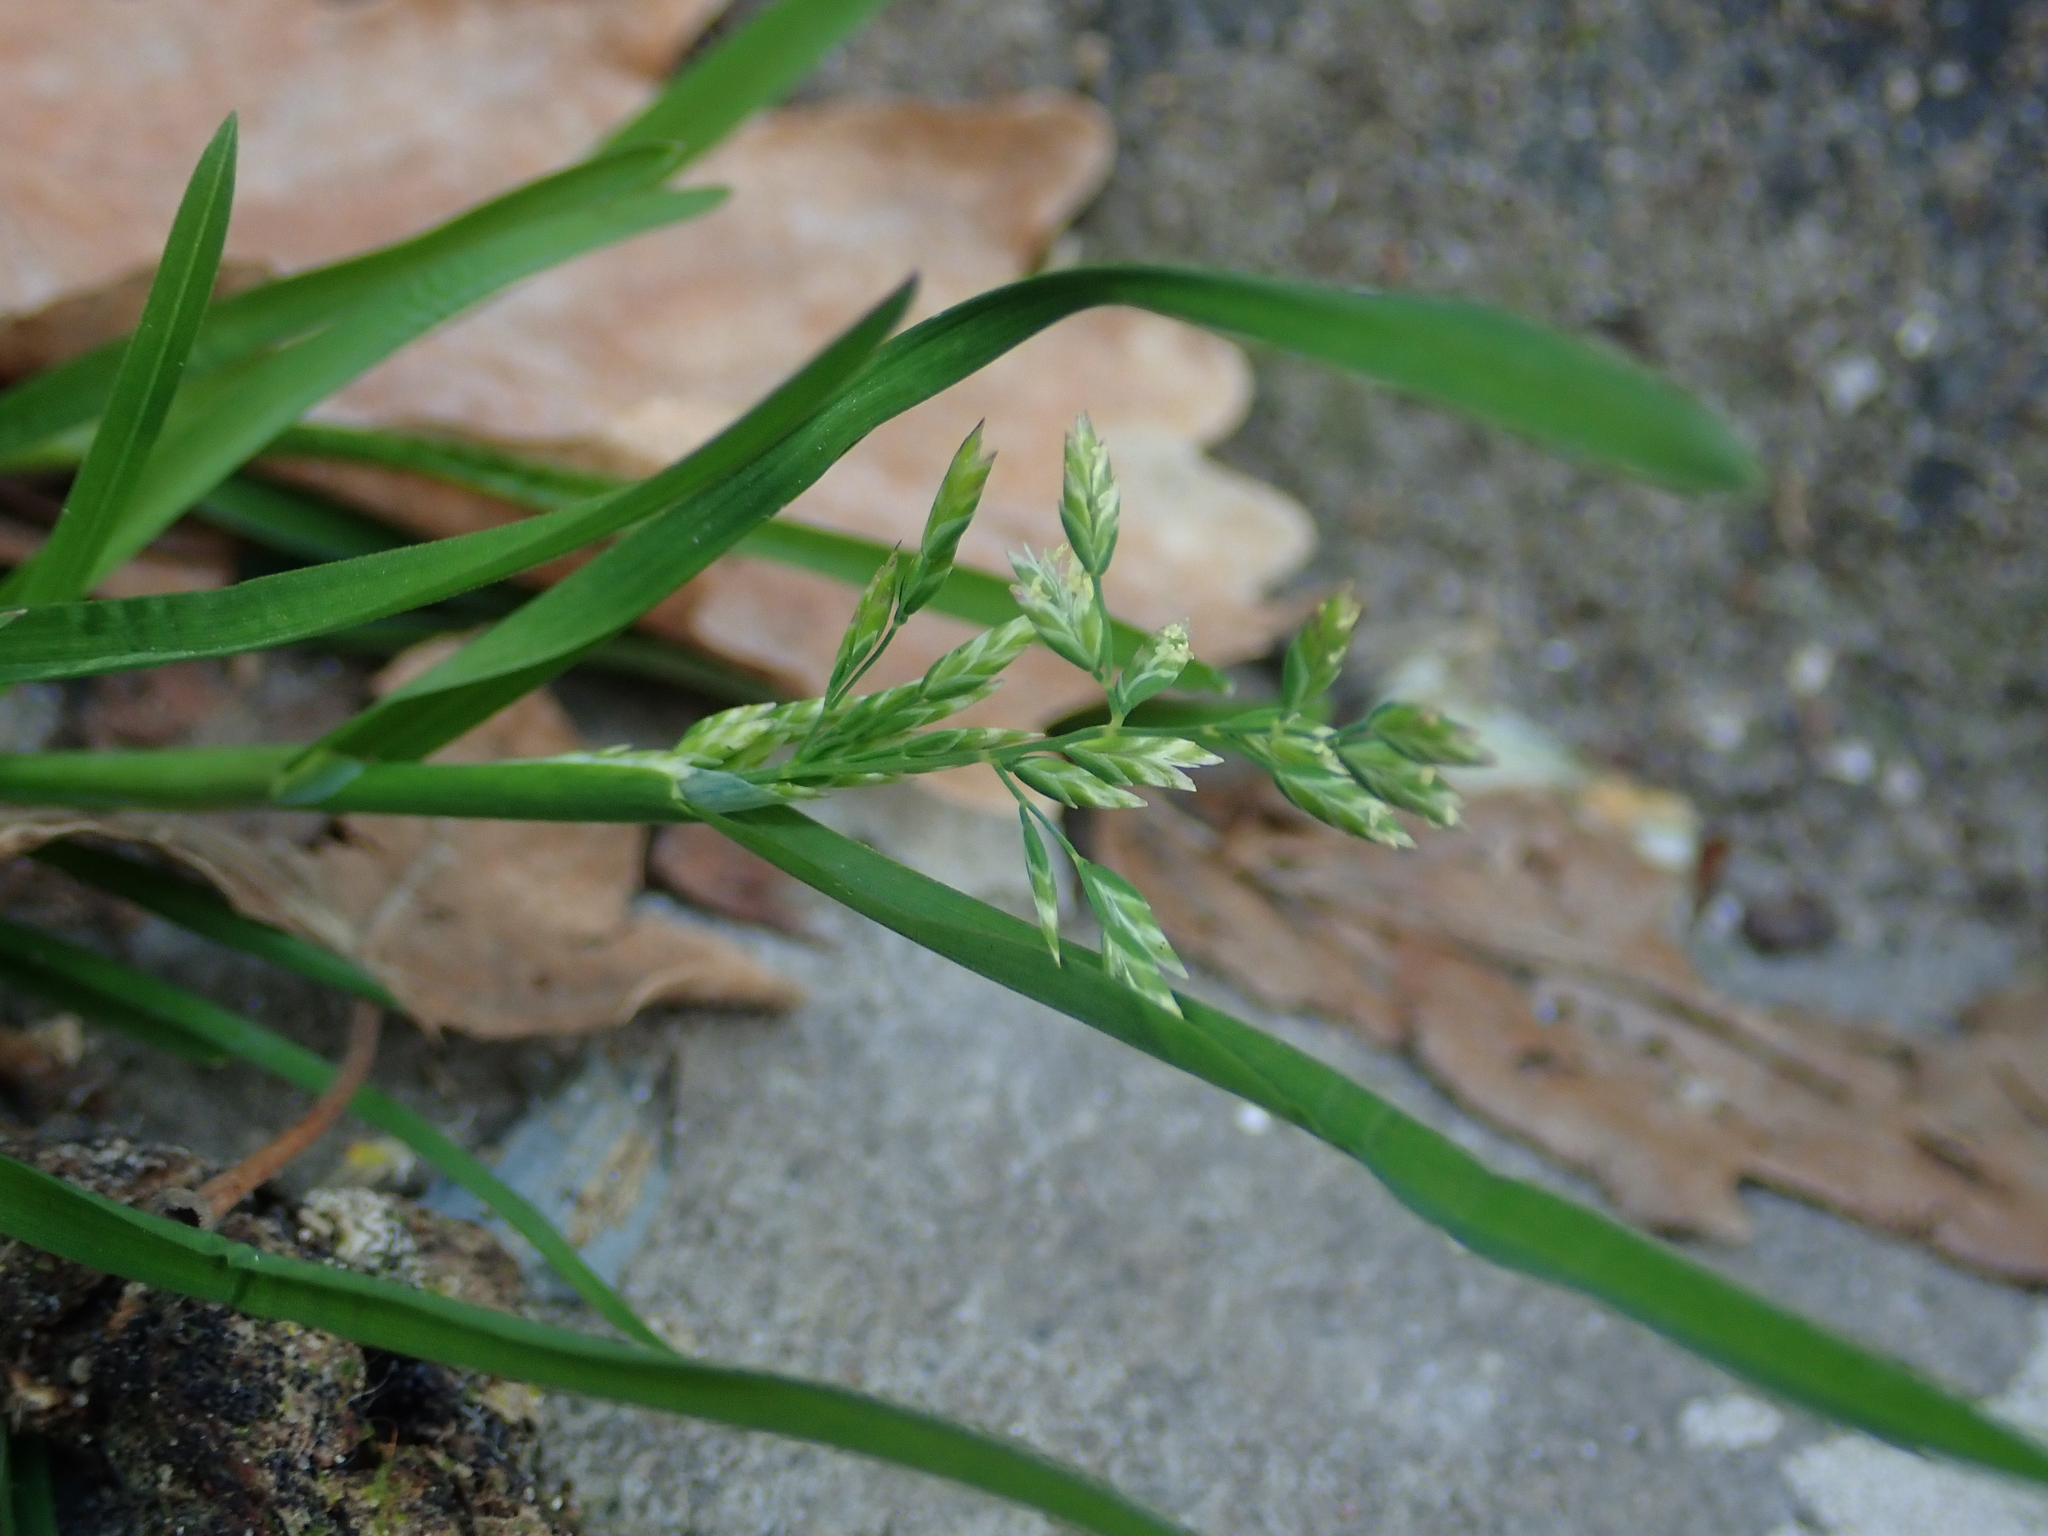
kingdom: Plantae
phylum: Tracheophyta
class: Liliopsida
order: Poales
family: Poaceae
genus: Poa
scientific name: Poa annua
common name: Annual bluegrass
